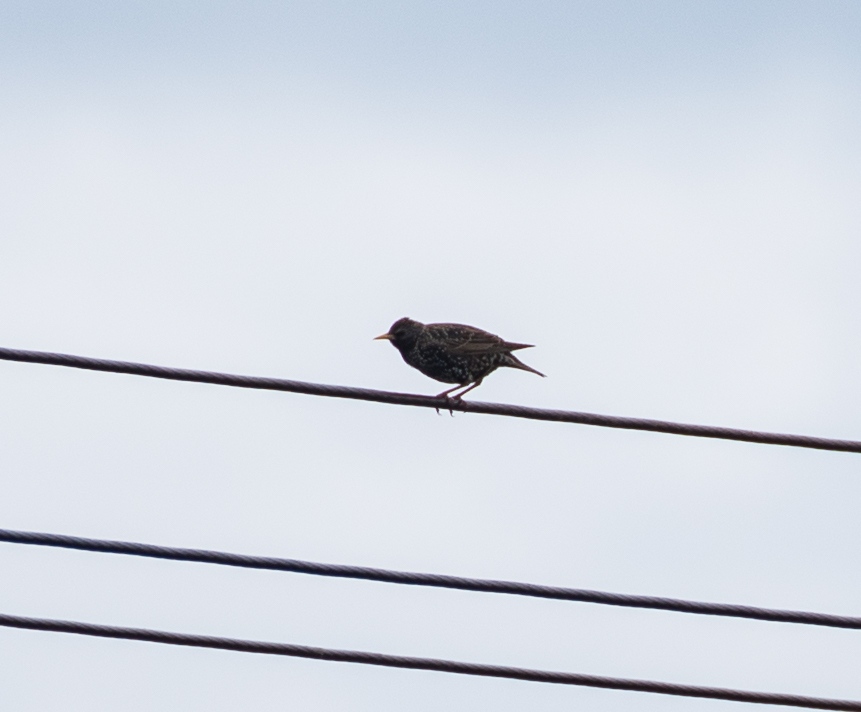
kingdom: Animalia
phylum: Chordata
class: Aves
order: Passeriformes
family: Sturnidae
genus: Sturnus
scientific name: Sturnus vulgaris
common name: Common starling
